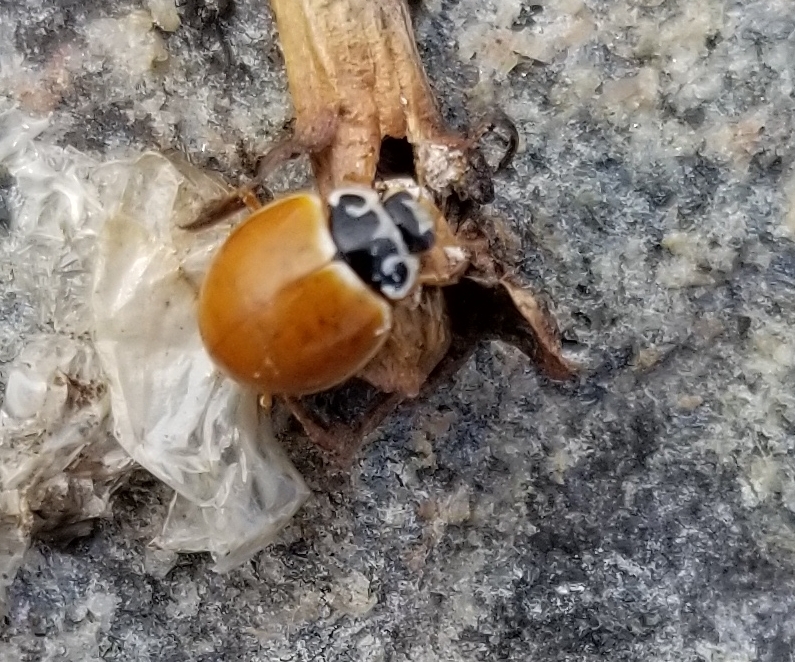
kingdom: Animalia
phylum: Arthropoda
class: Insecta
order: Coleoptera
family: Coccinellidae
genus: Cycloneda
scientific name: Cycloneda munda
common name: Polished lady beetle
